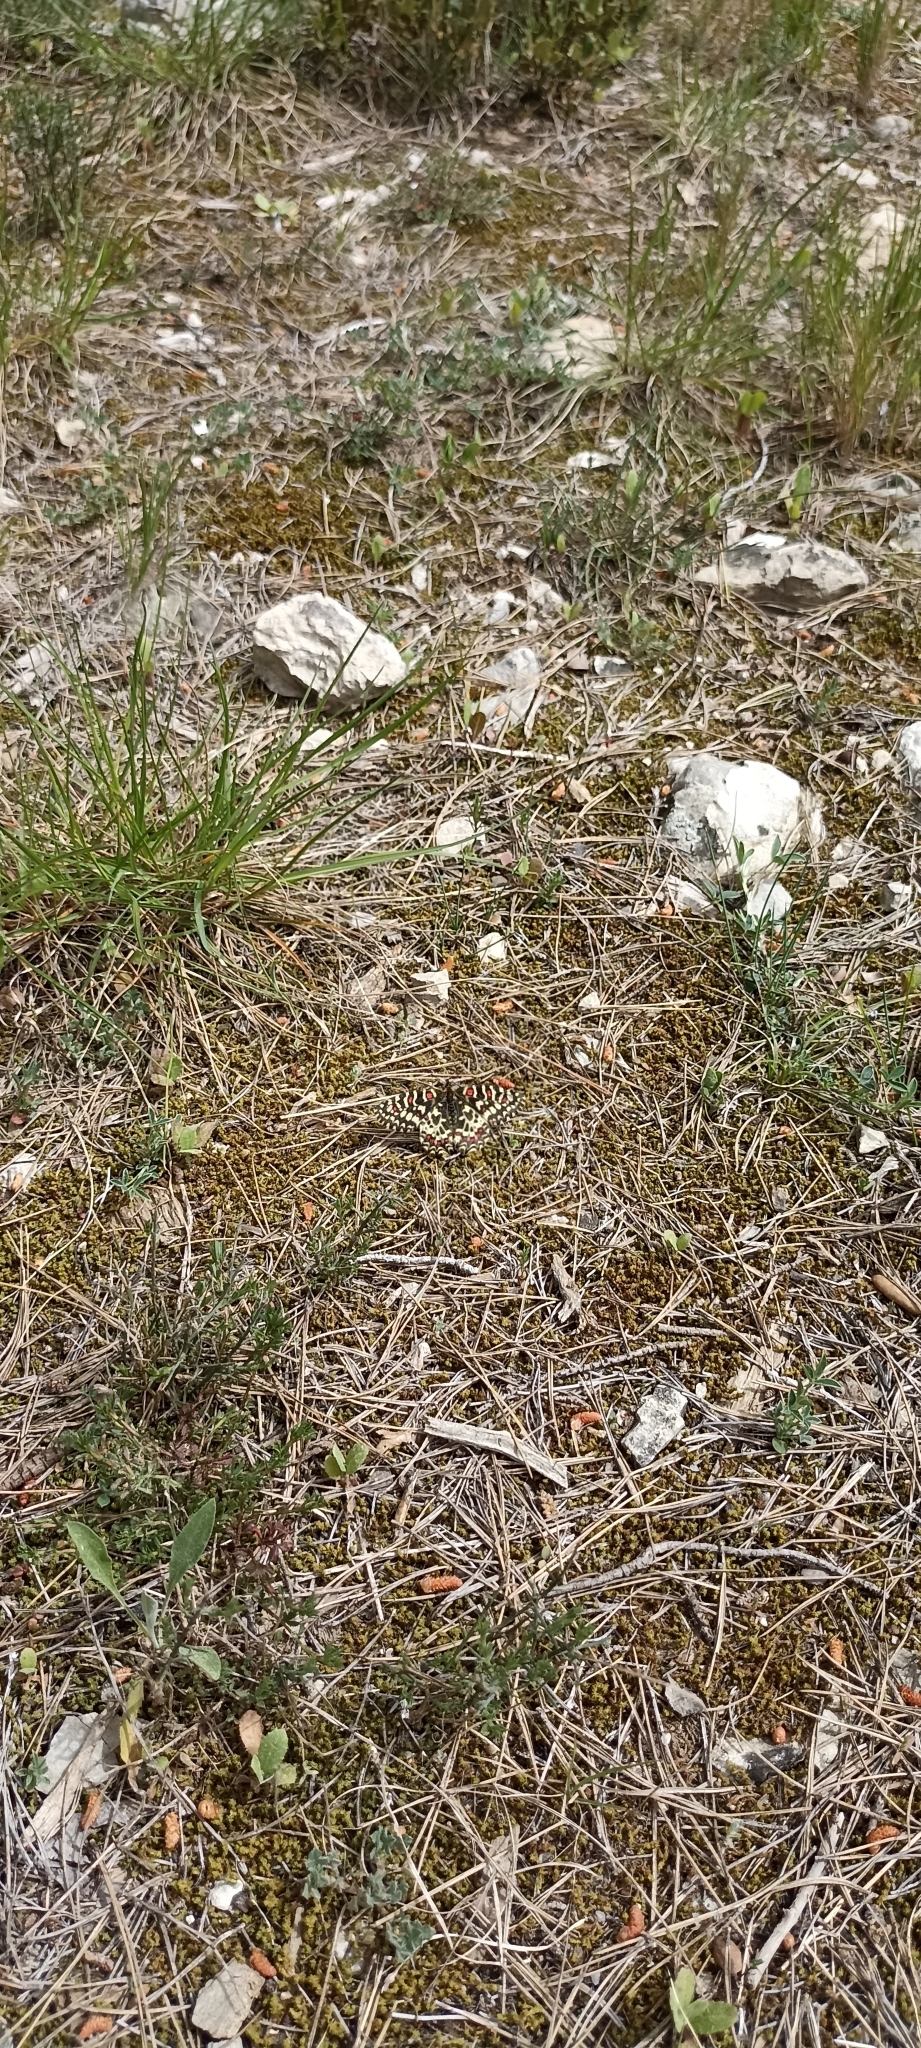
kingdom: Animalia
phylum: Arthropoda
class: Insecta
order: Lepidoptera
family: Papilionidae
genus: Zerynthia
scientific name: Zerynthia rumina
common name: Spanish festoon
